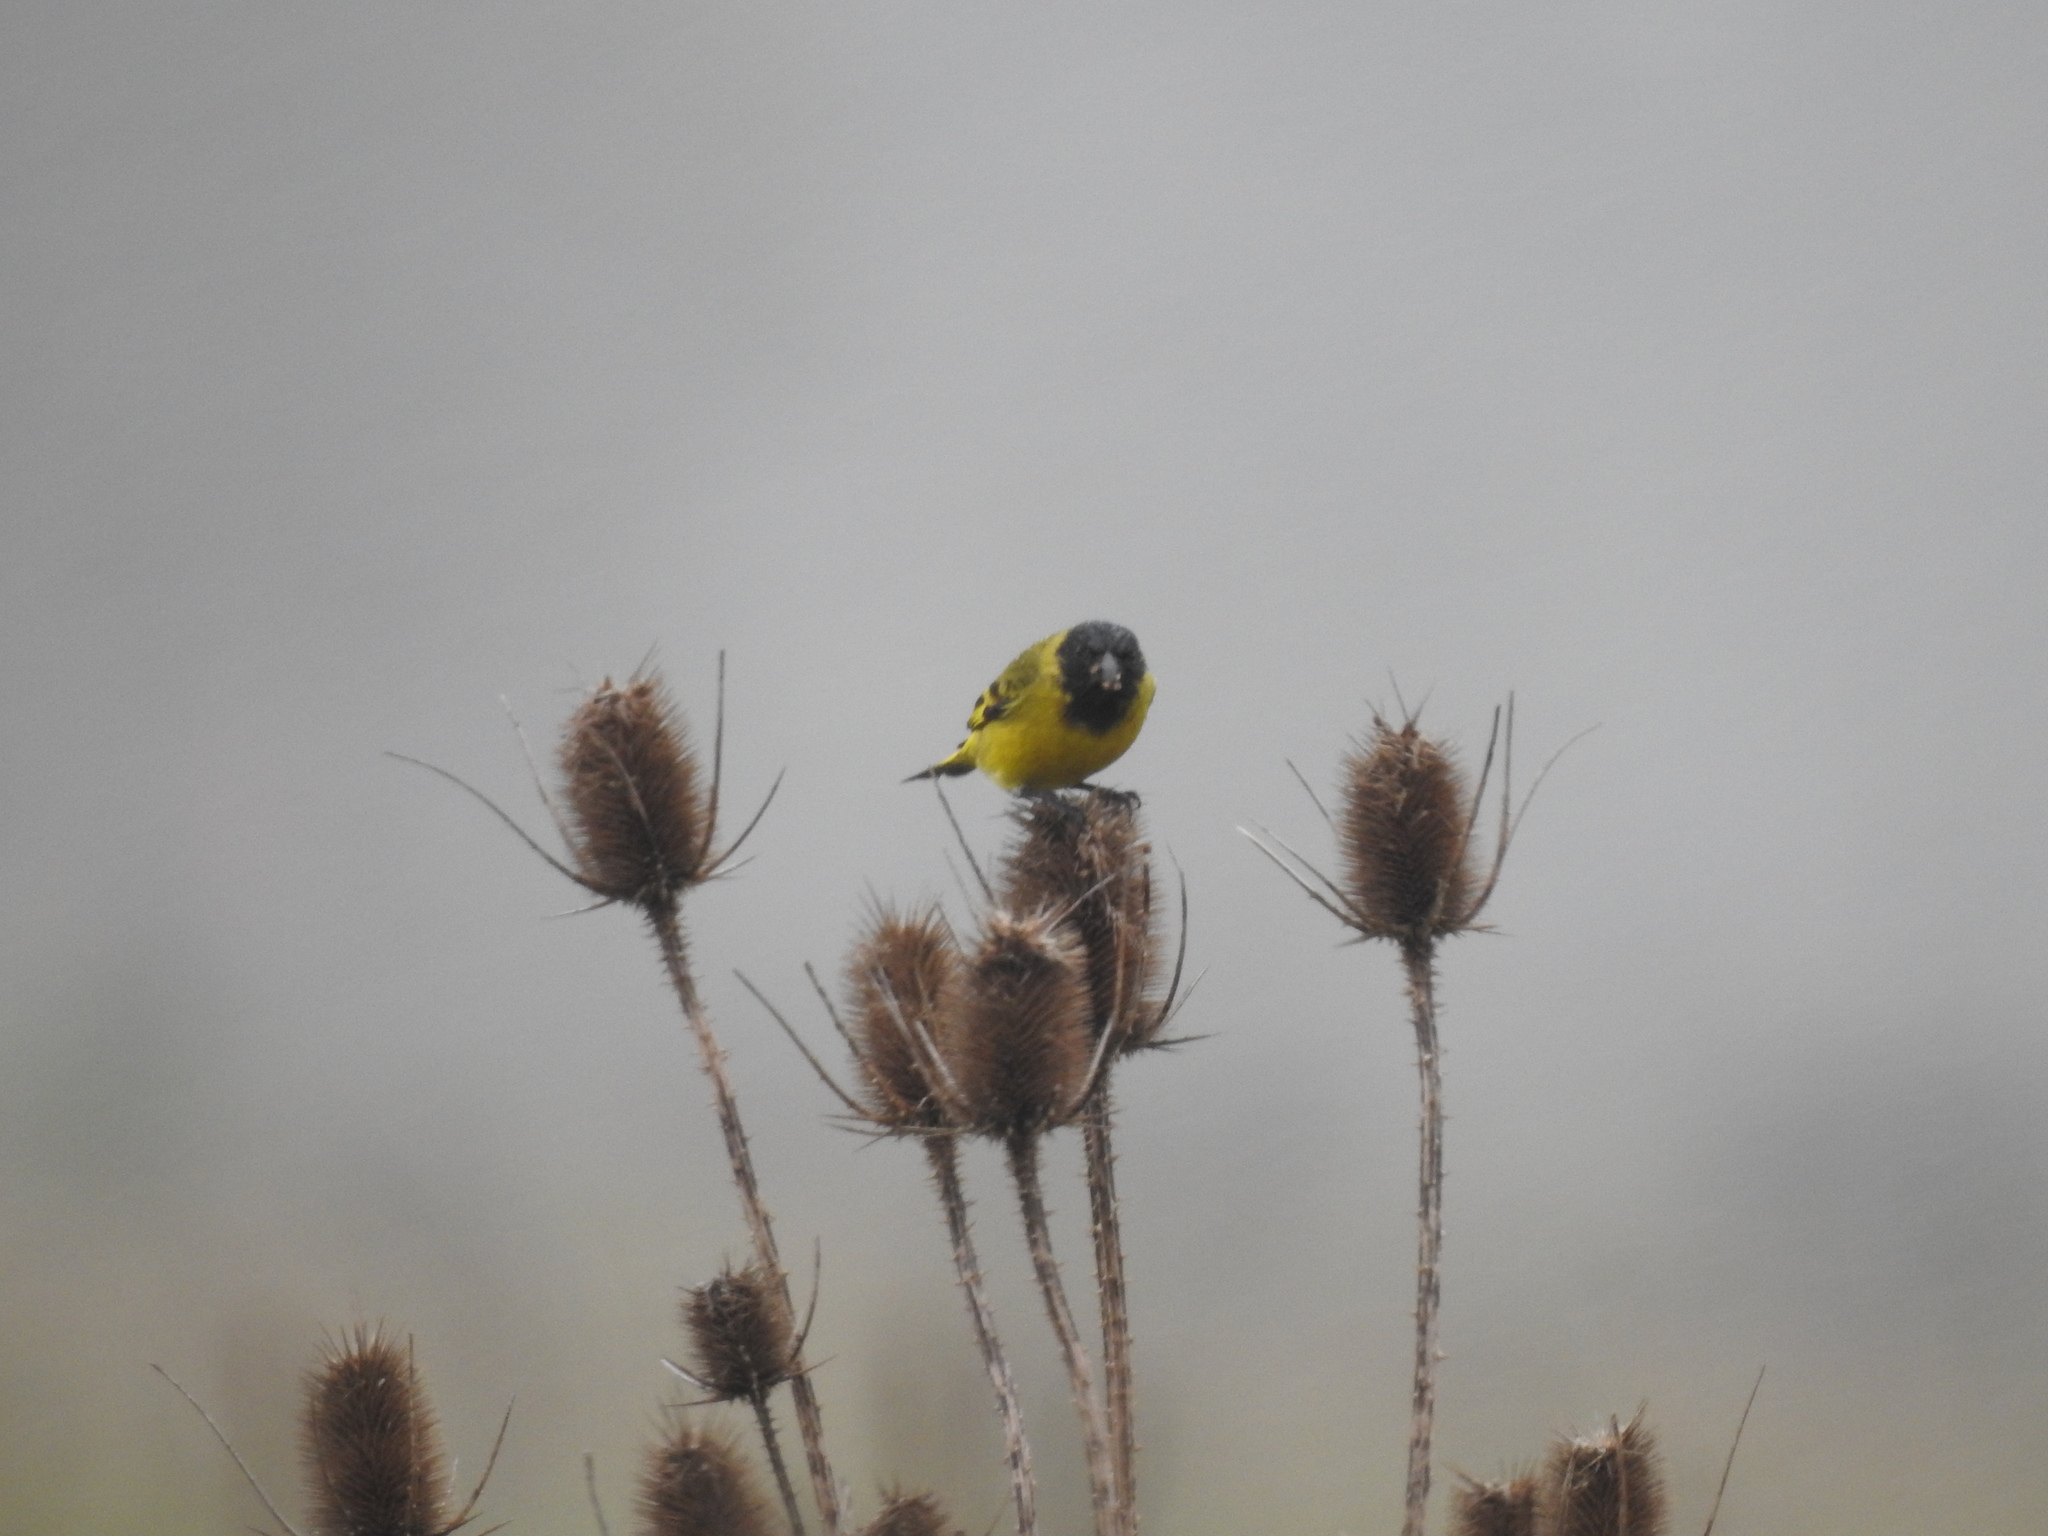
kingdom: Animalia
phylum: Chordata
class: Aves
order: Passeriformes
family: Fringillidae
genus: Spinus
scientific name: Spinus magellanicus
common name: Hooded siskin
